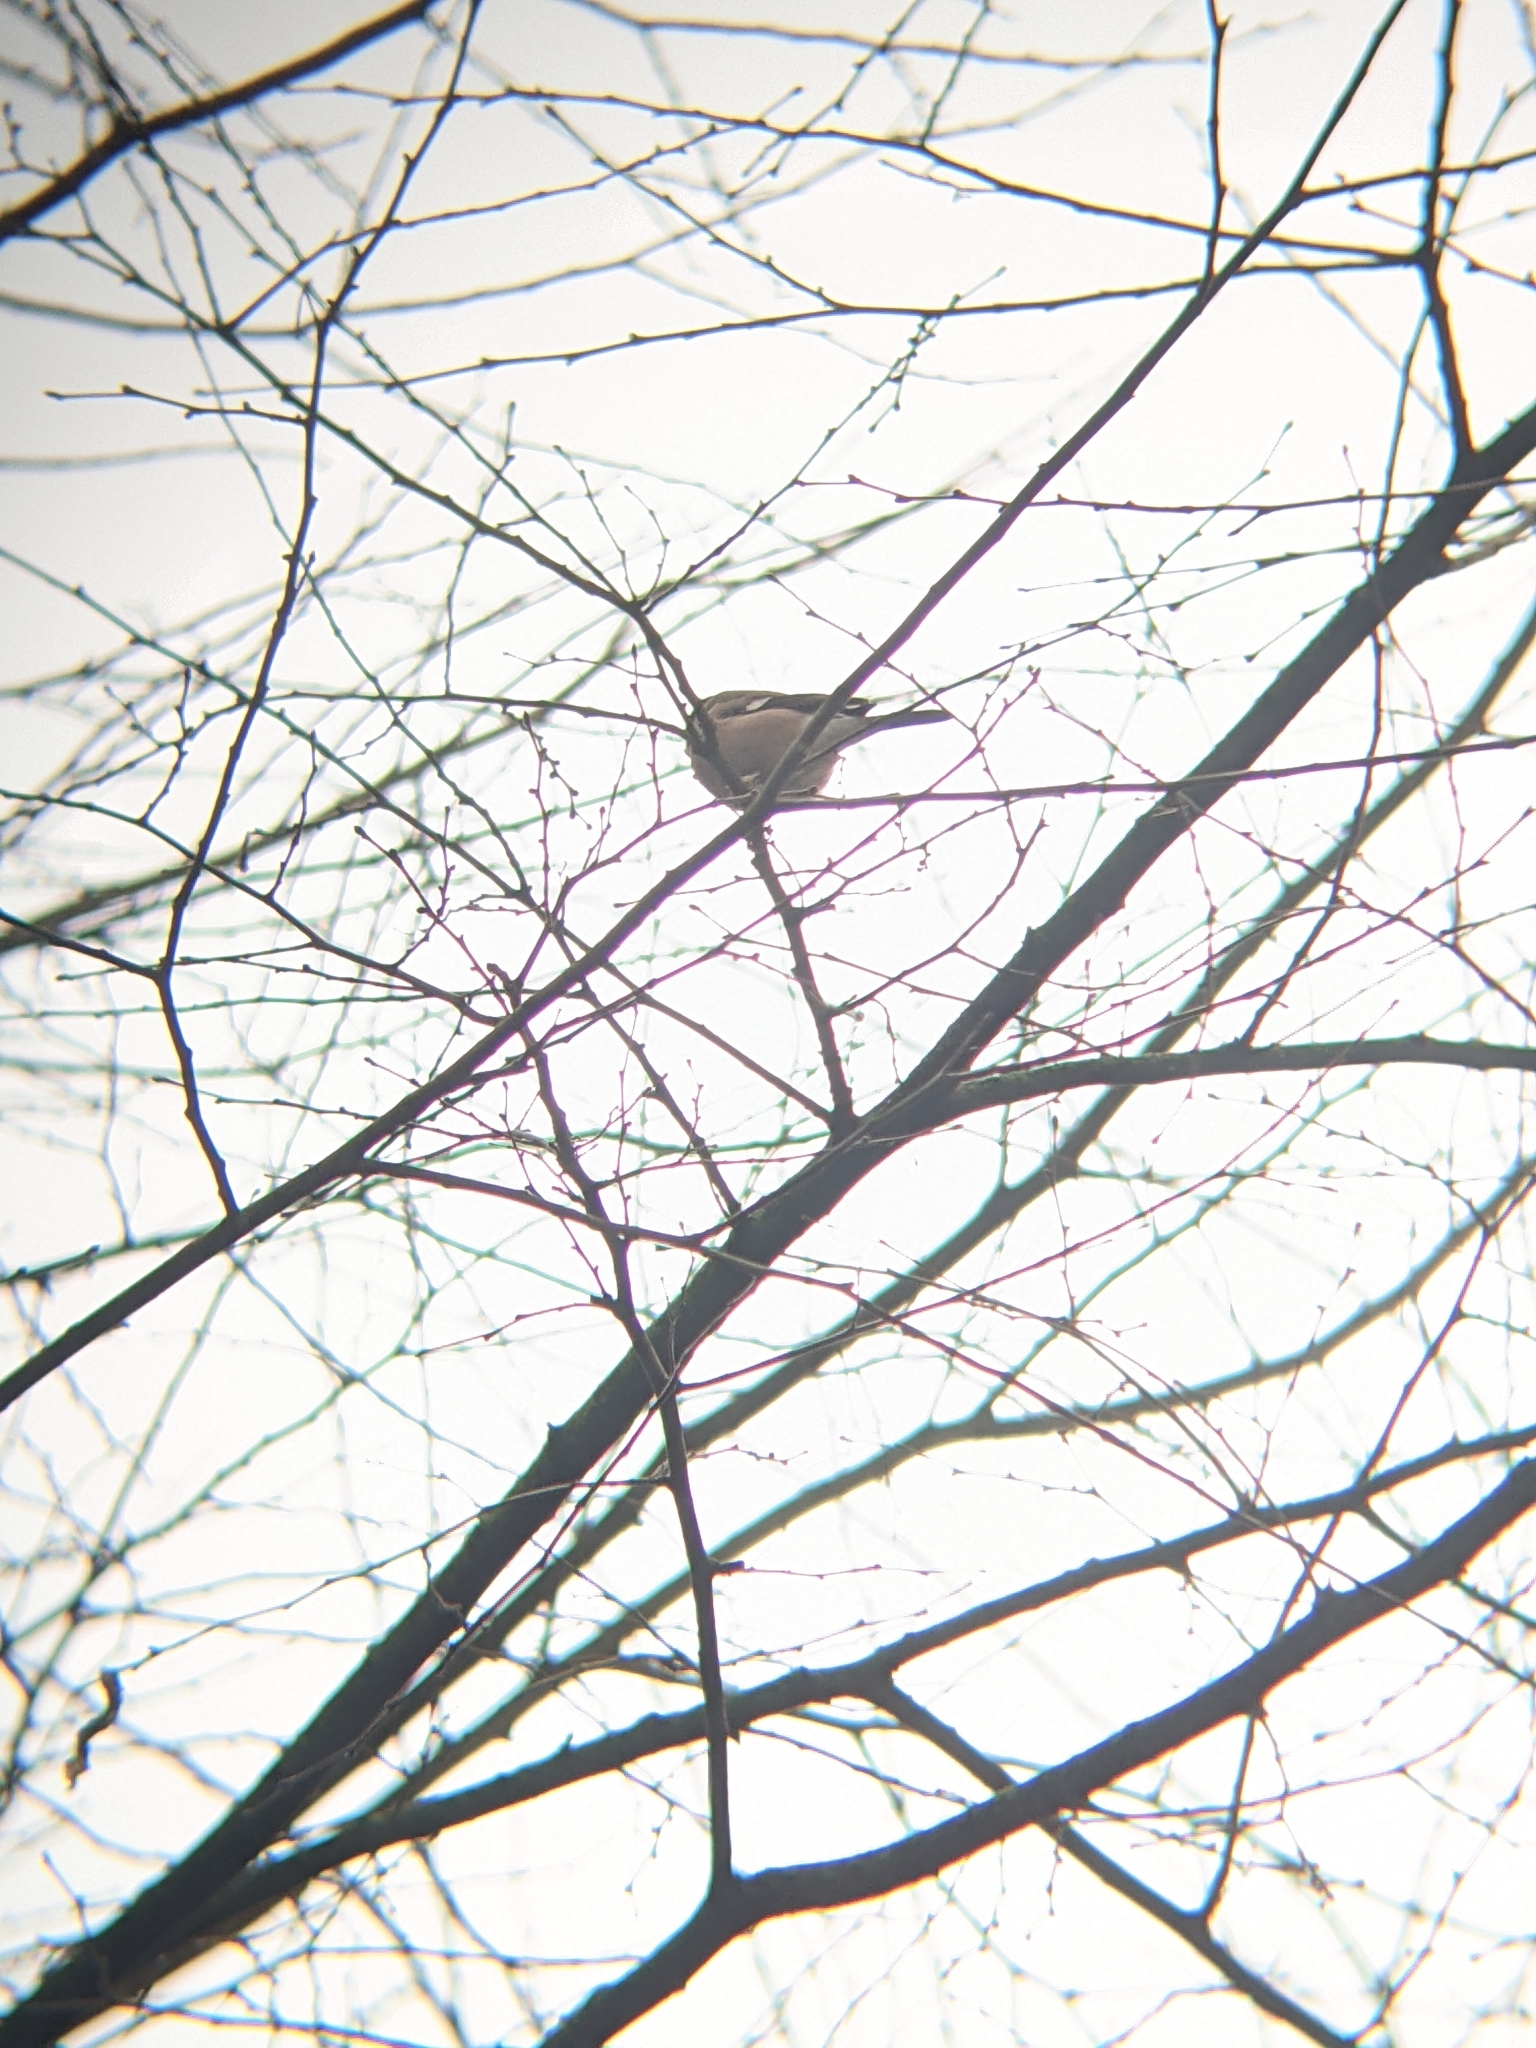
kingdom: Animalia
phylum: Chordata
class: Aves
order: Passeriformes
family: Fringillidae
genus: Pyrrhula
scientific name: Pyrrhula pyrrhula
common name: Eurasian bullfinch
